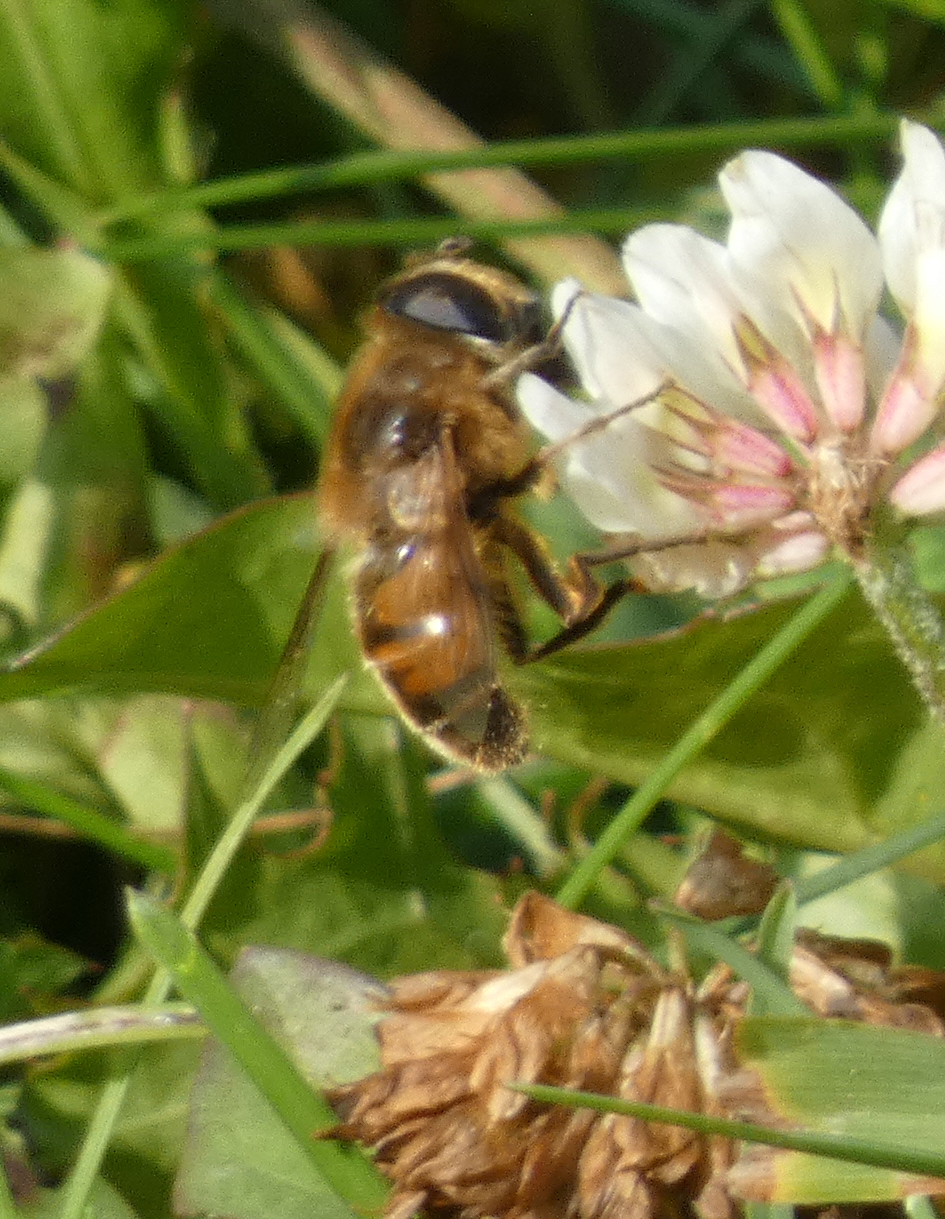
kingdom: Animalia
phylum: Arthropoda
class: Insecta
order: Diptera
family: Syrphidae
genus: Eristalis
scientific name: Eristalis tenax
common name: Drone fly
